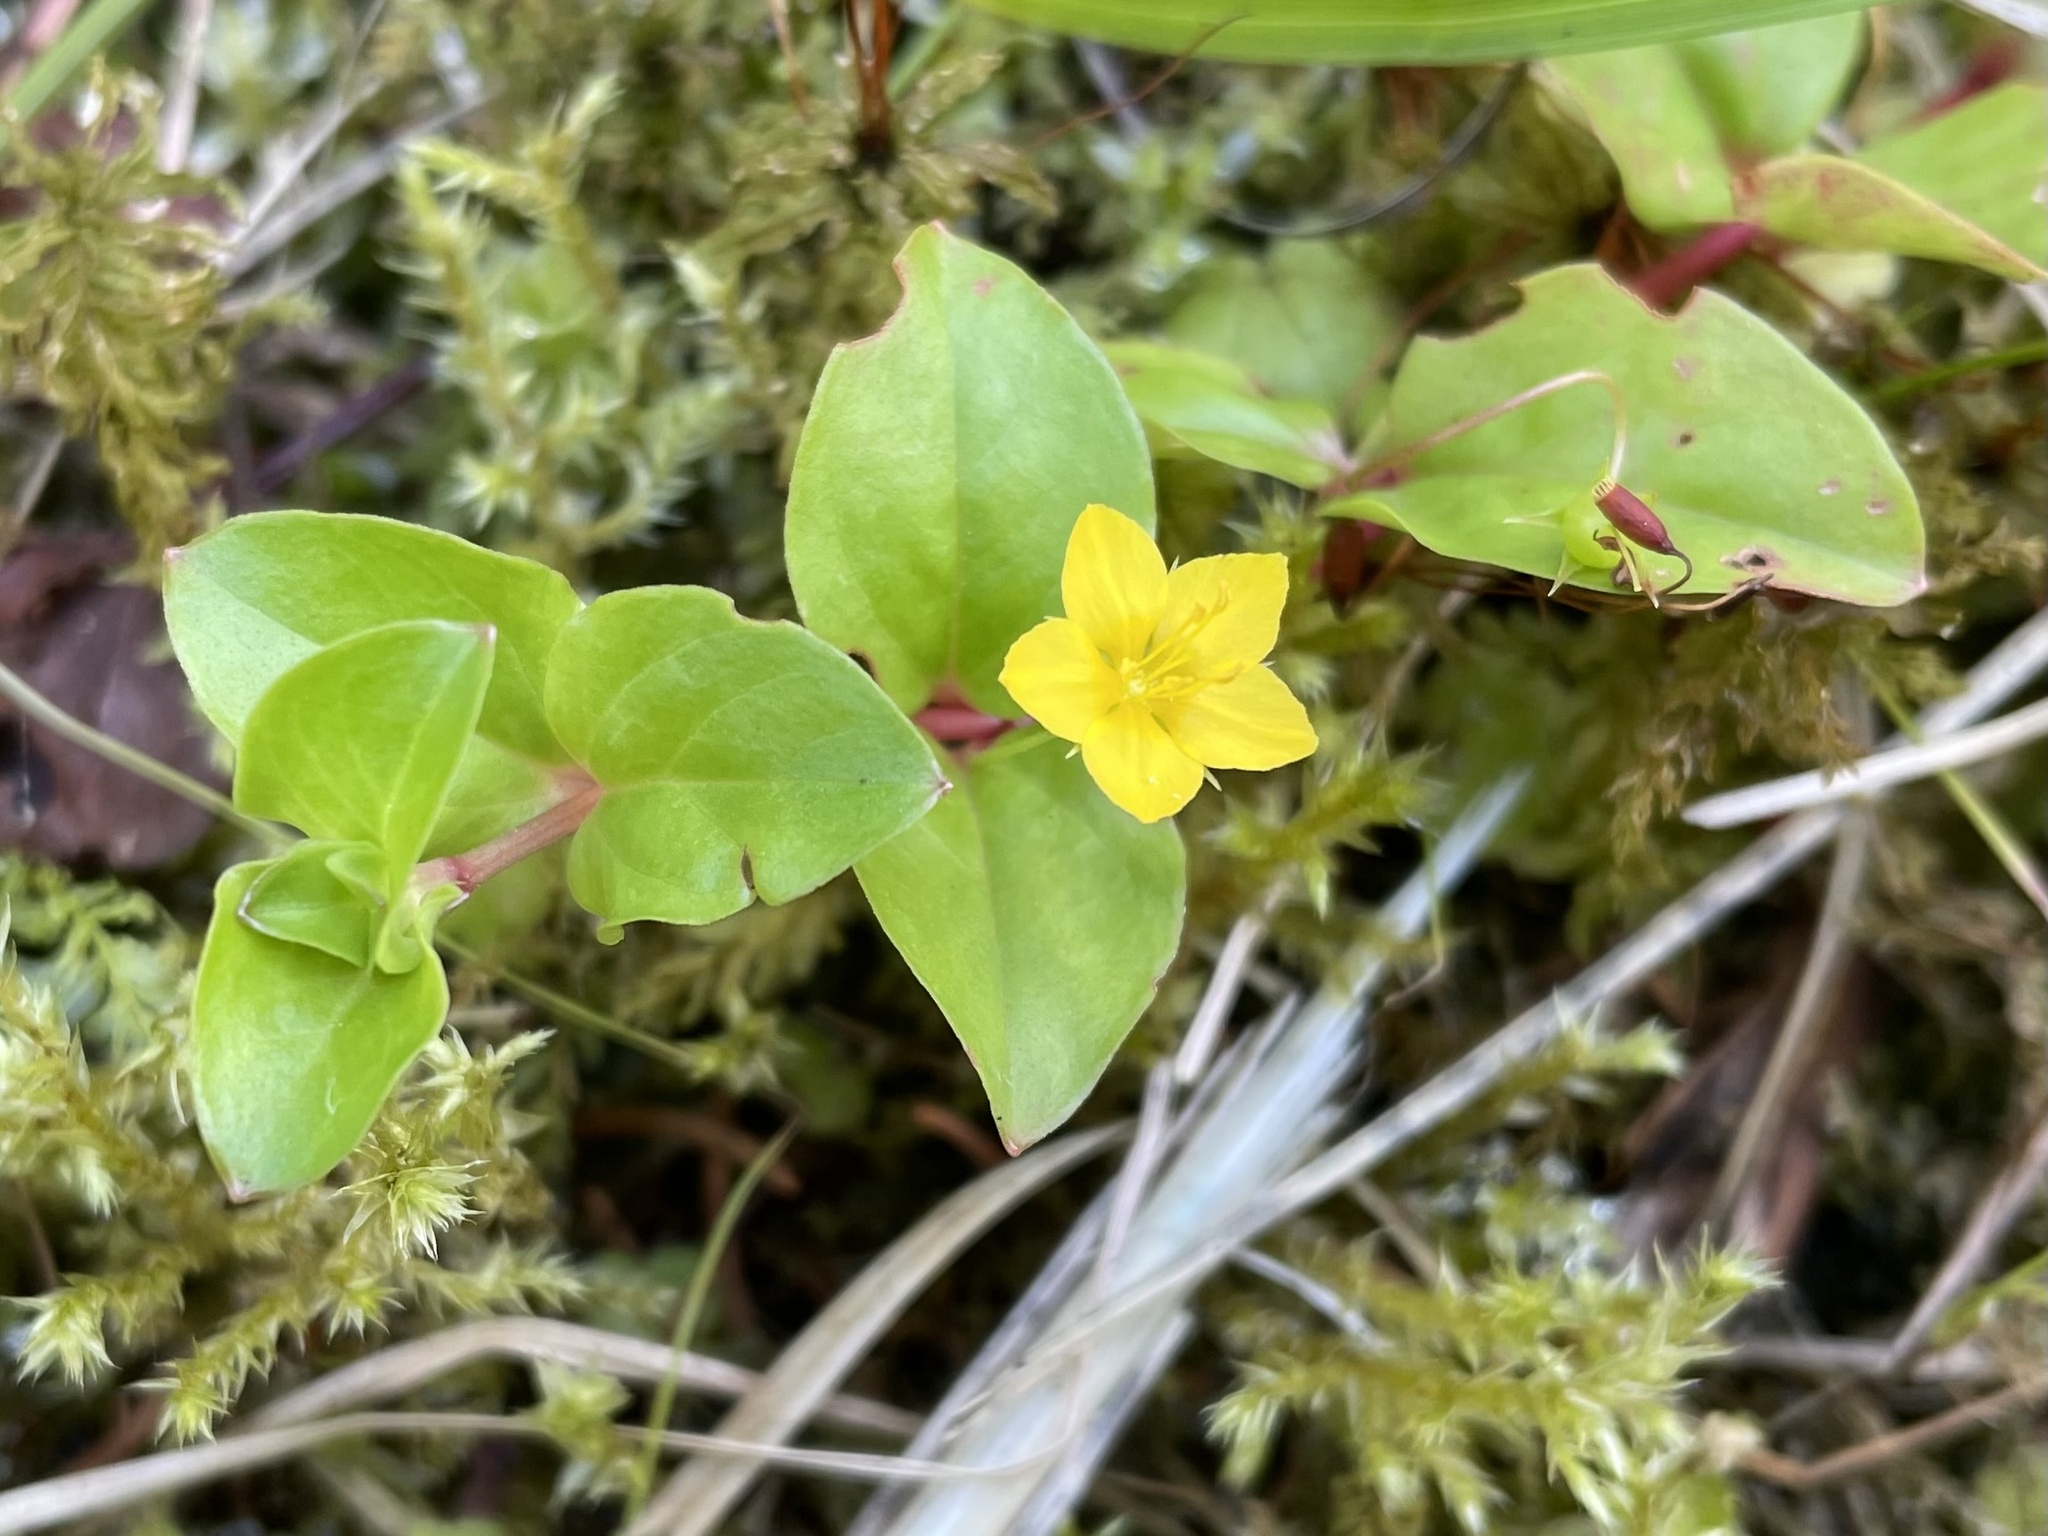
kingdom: Plantae
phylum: Tracheophyta
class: Magnoliopsida
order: Ericales
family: Primulaceae
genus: Lysimachia
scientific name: Lysimachia nemorum
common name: Yellow pimpernel
